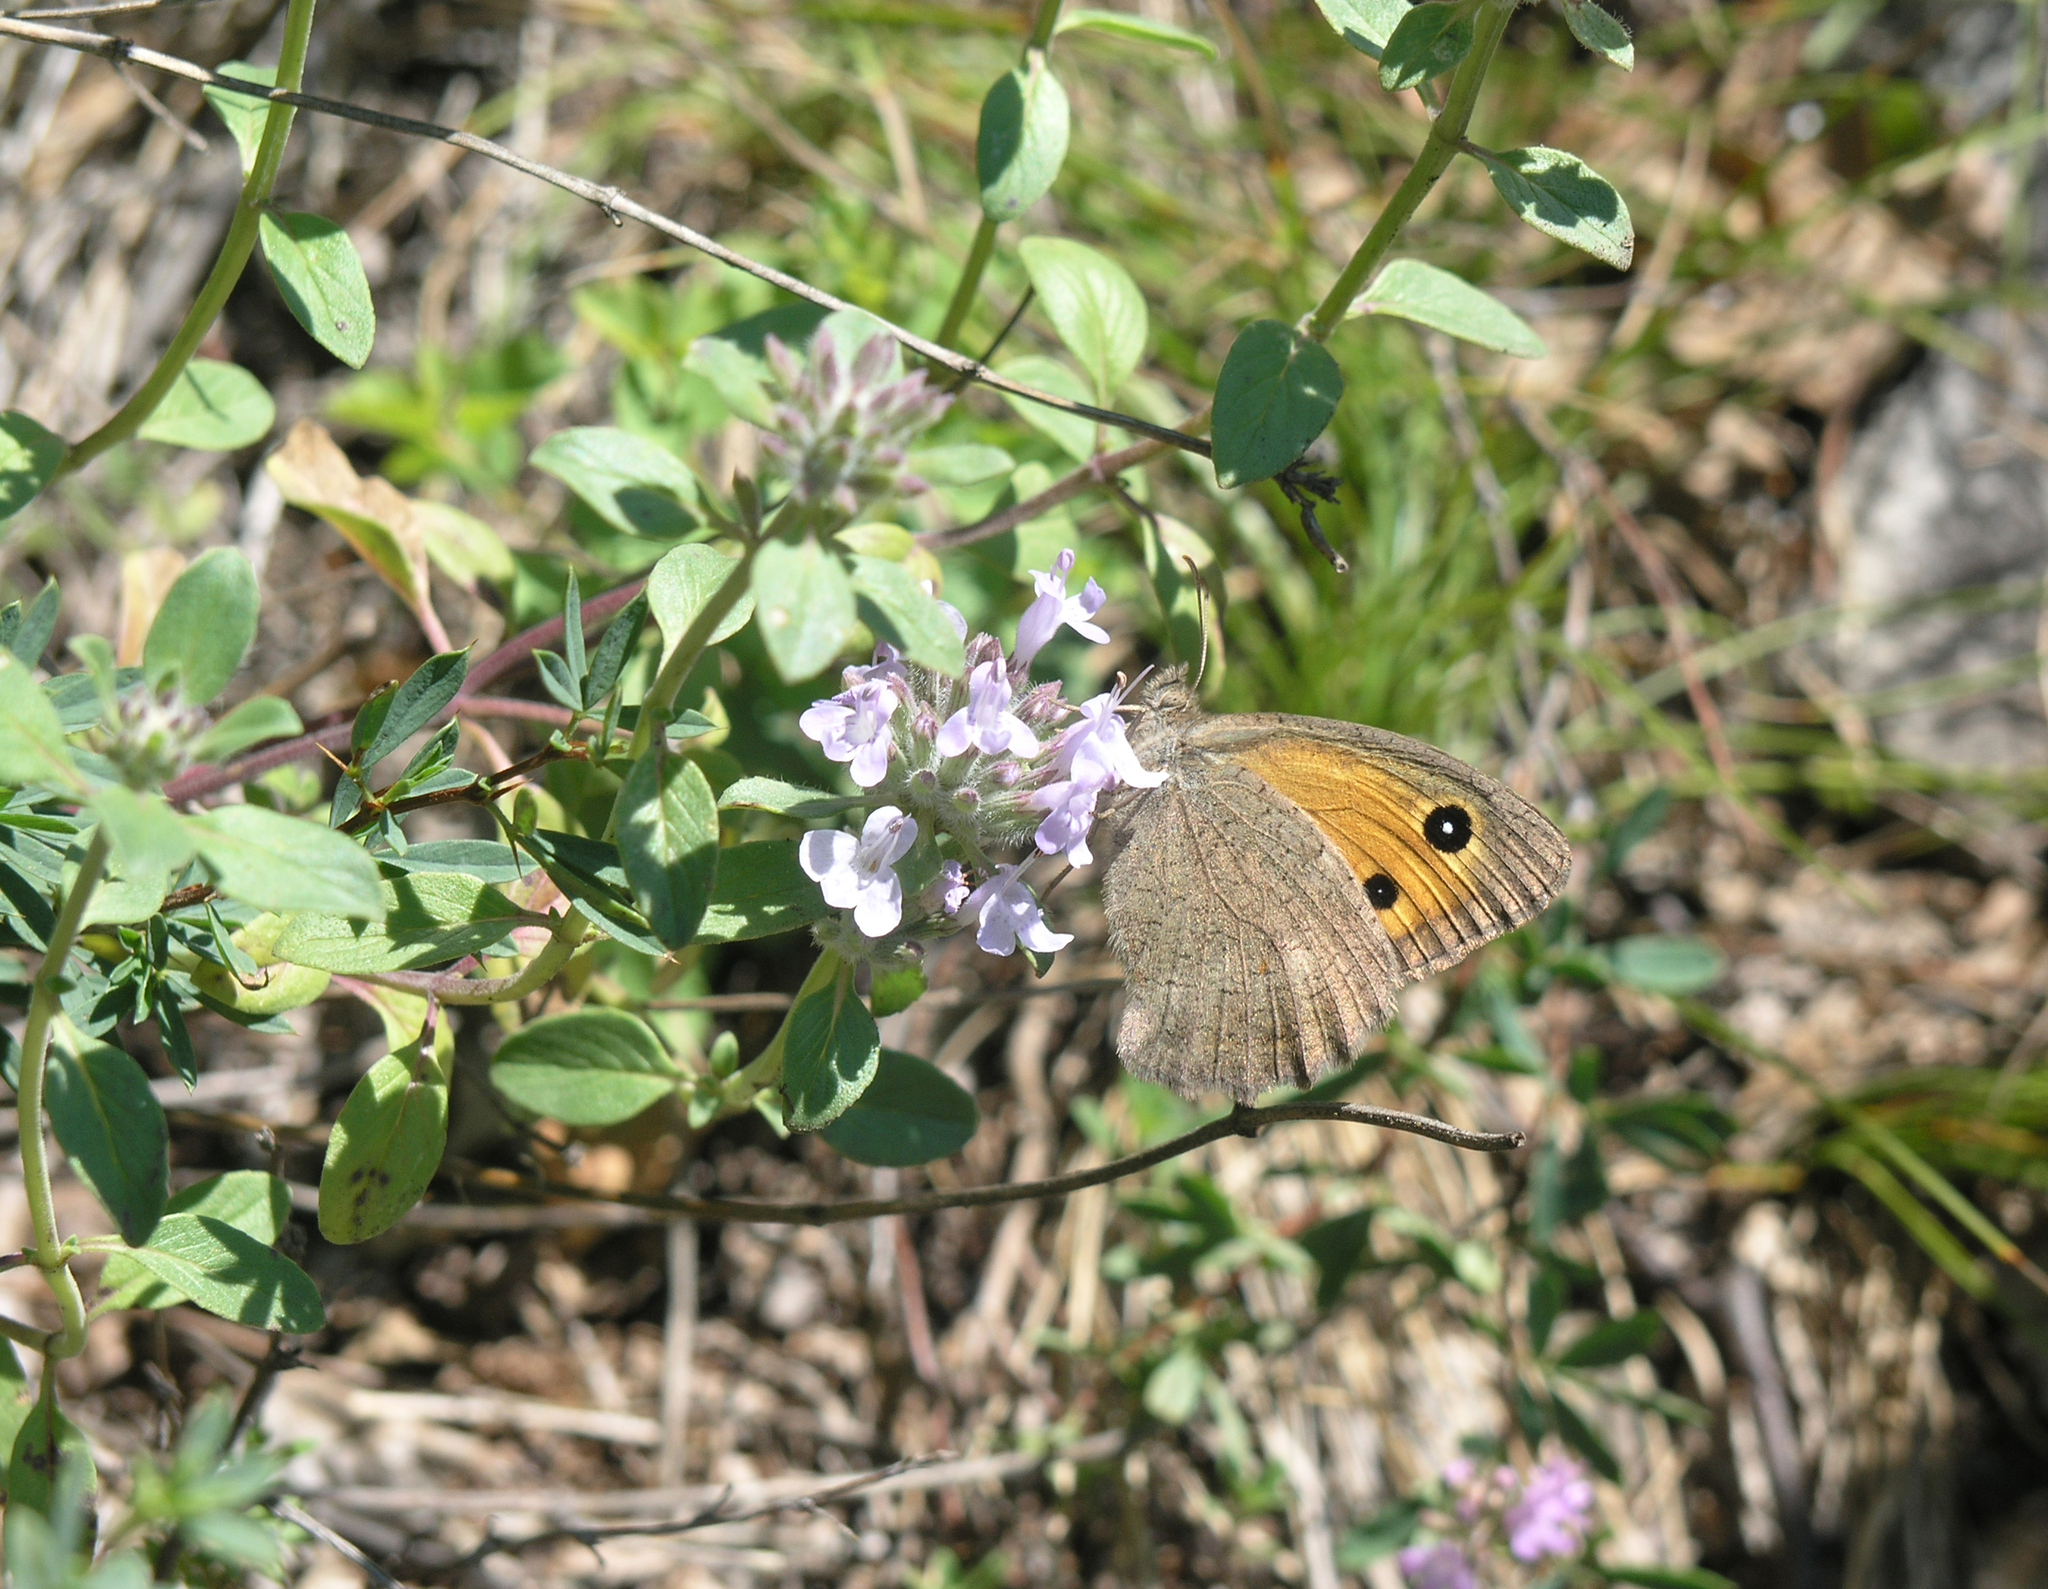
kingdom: Animalia
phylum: Arthropoda
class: Insecta
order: Lepidoptera
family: Nymphalidae
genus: Hyponephele
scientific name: Hyponephele lycaon
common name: Dusky meadow brown
